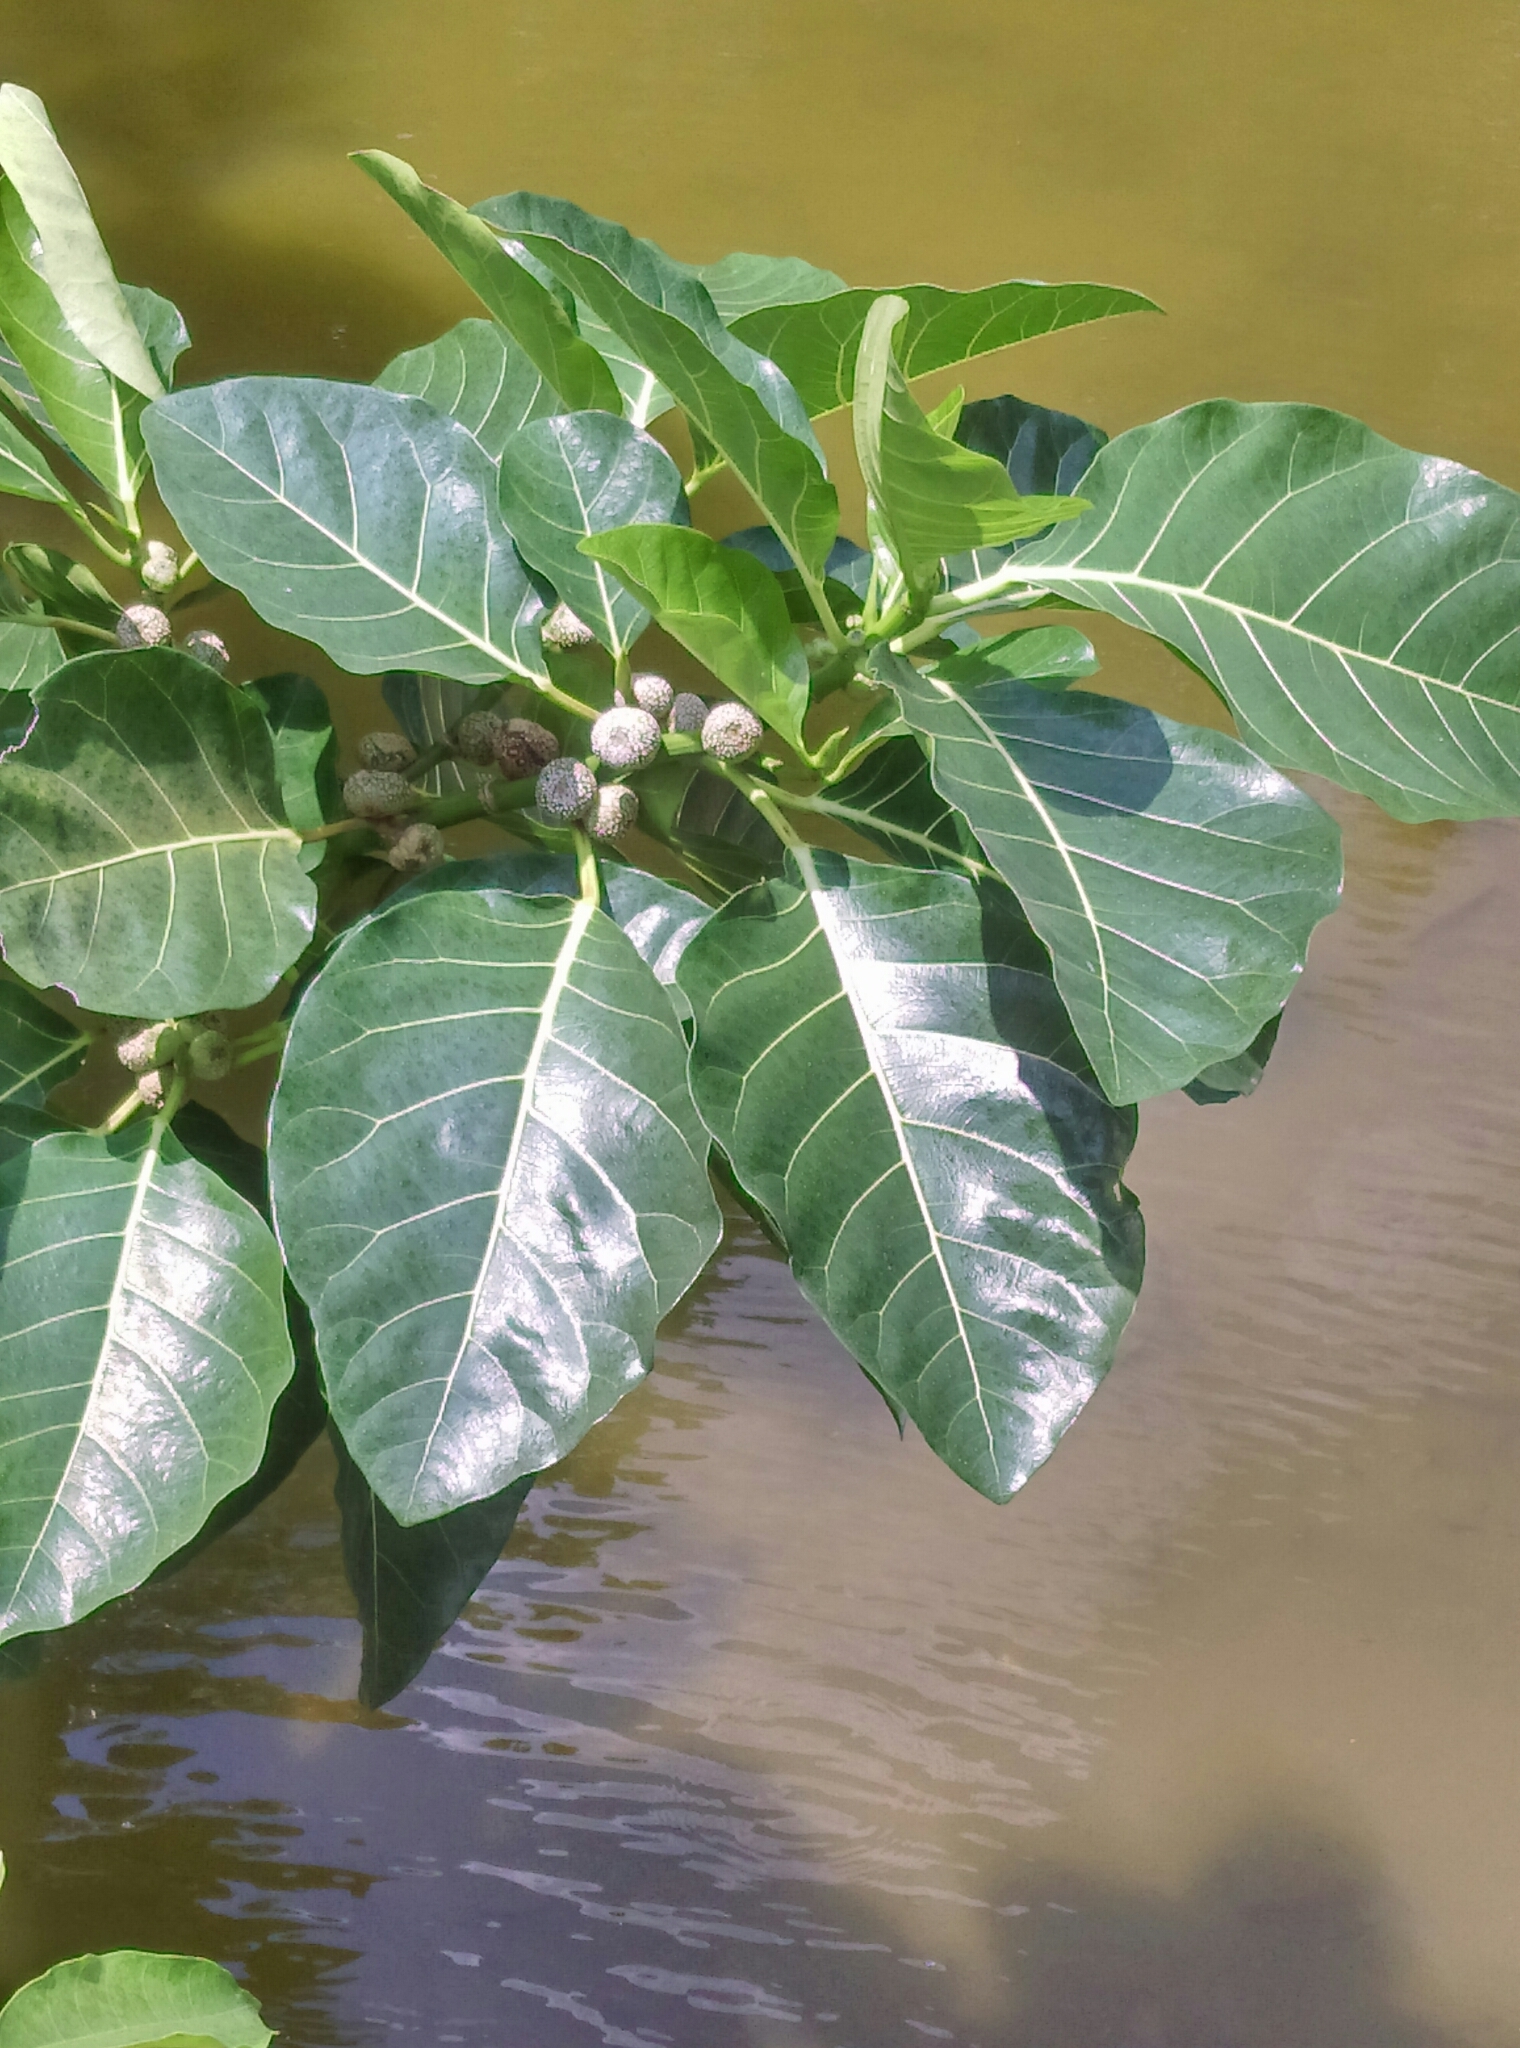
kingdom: Plantae
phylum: Tracheophyta
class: Magnoliopsida
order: Rosales
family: Moraceae
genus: Ficus
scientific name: Ficus septica
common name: Septic fig
